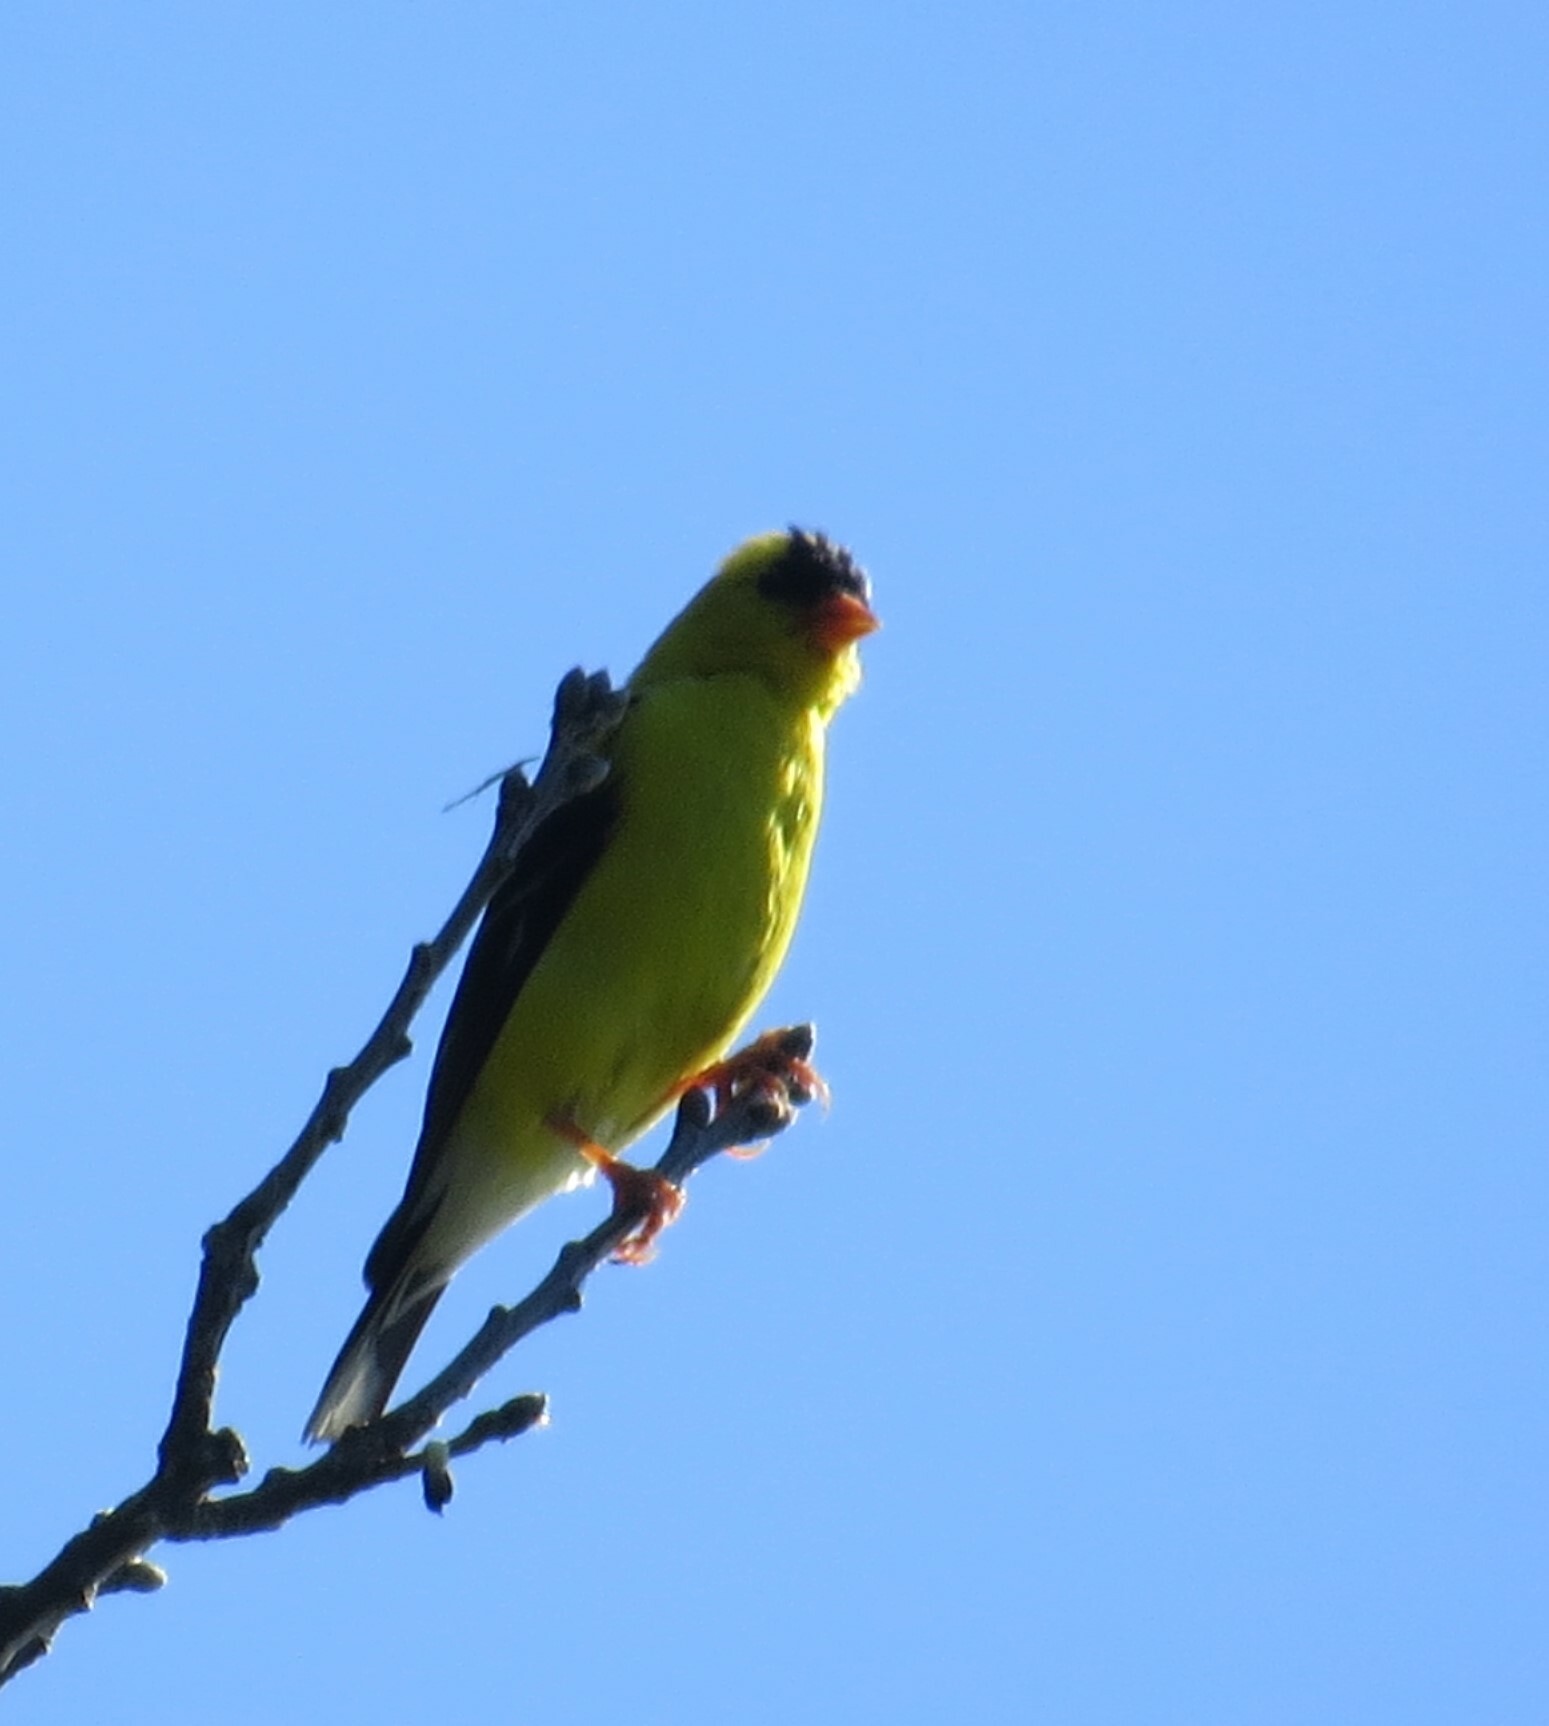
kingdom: Animalia
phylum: Chordata
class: Aves
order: Passeriformes
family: Fringillidae
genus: Spinus
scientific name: Spinus tristis
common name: American goldfinch
